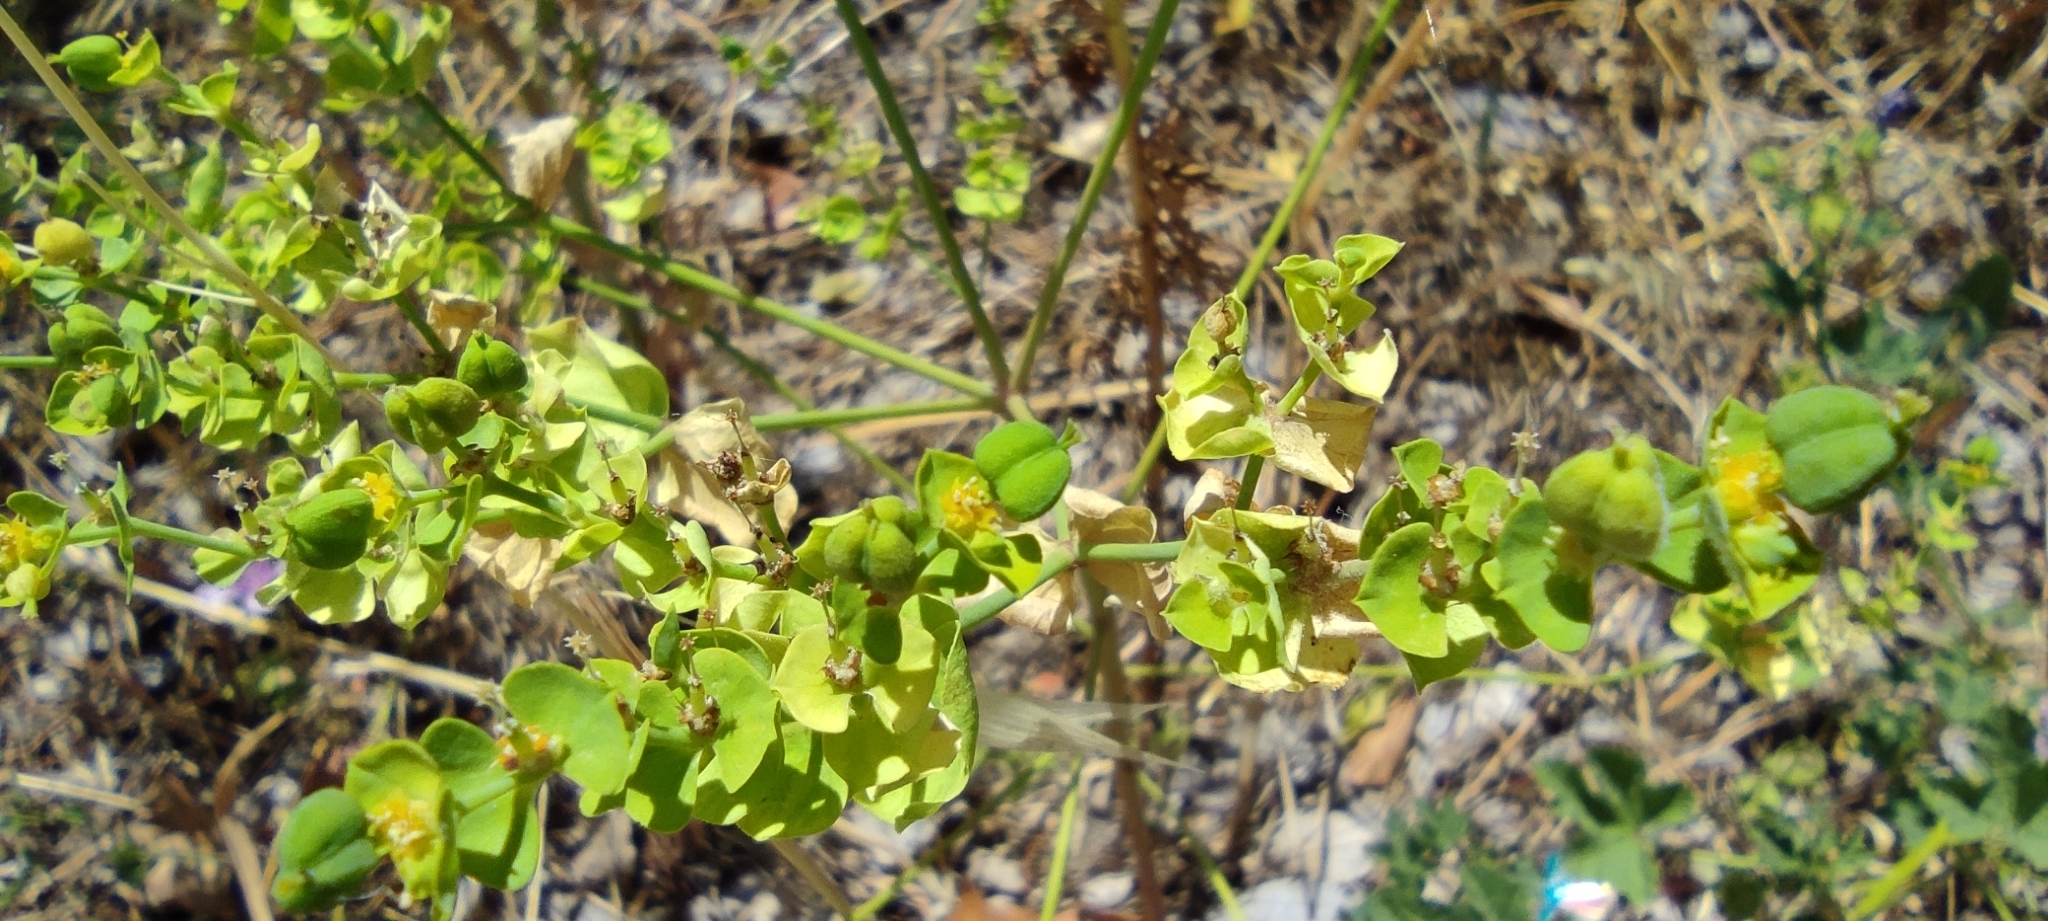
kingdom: Plantae
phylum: Tracheophyta
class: Magnoliopsida
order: Malpighiales
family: Euphorbiaceae
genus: Euphorbia
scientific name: Euphorbia terracina
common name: Geraldton carnation weed
